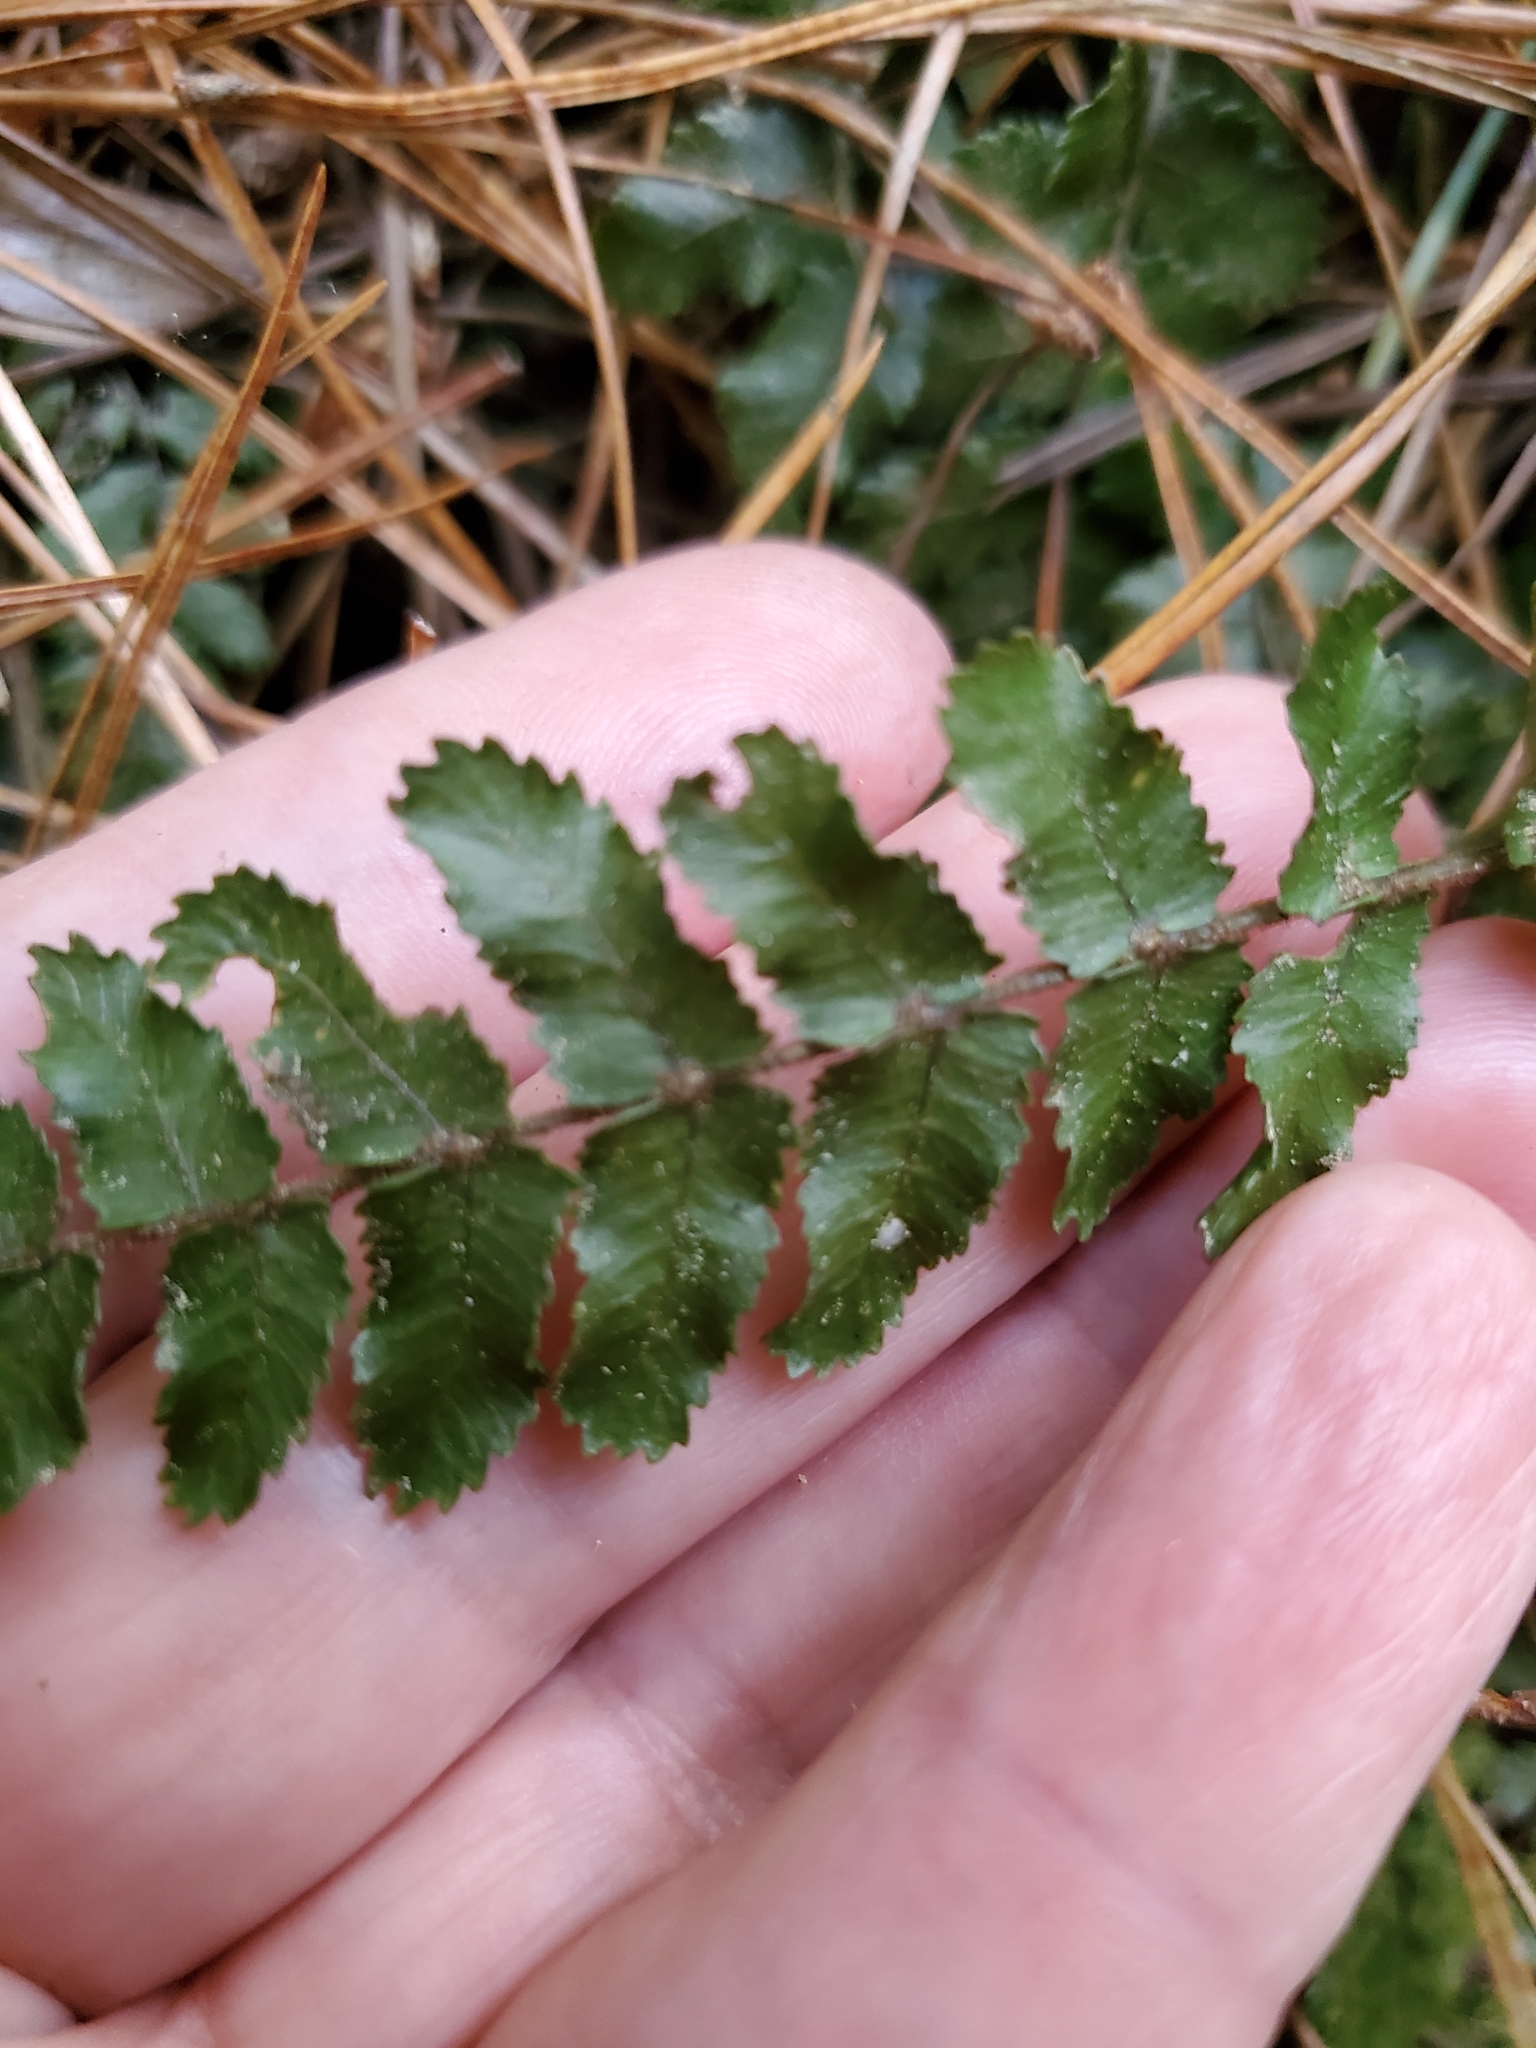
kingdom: Plantae
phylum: Tracheophyta
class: Polypodiopsida
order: Polypodiales
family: Blechnaceae
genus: Icarus
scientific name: Icarus filiformis
